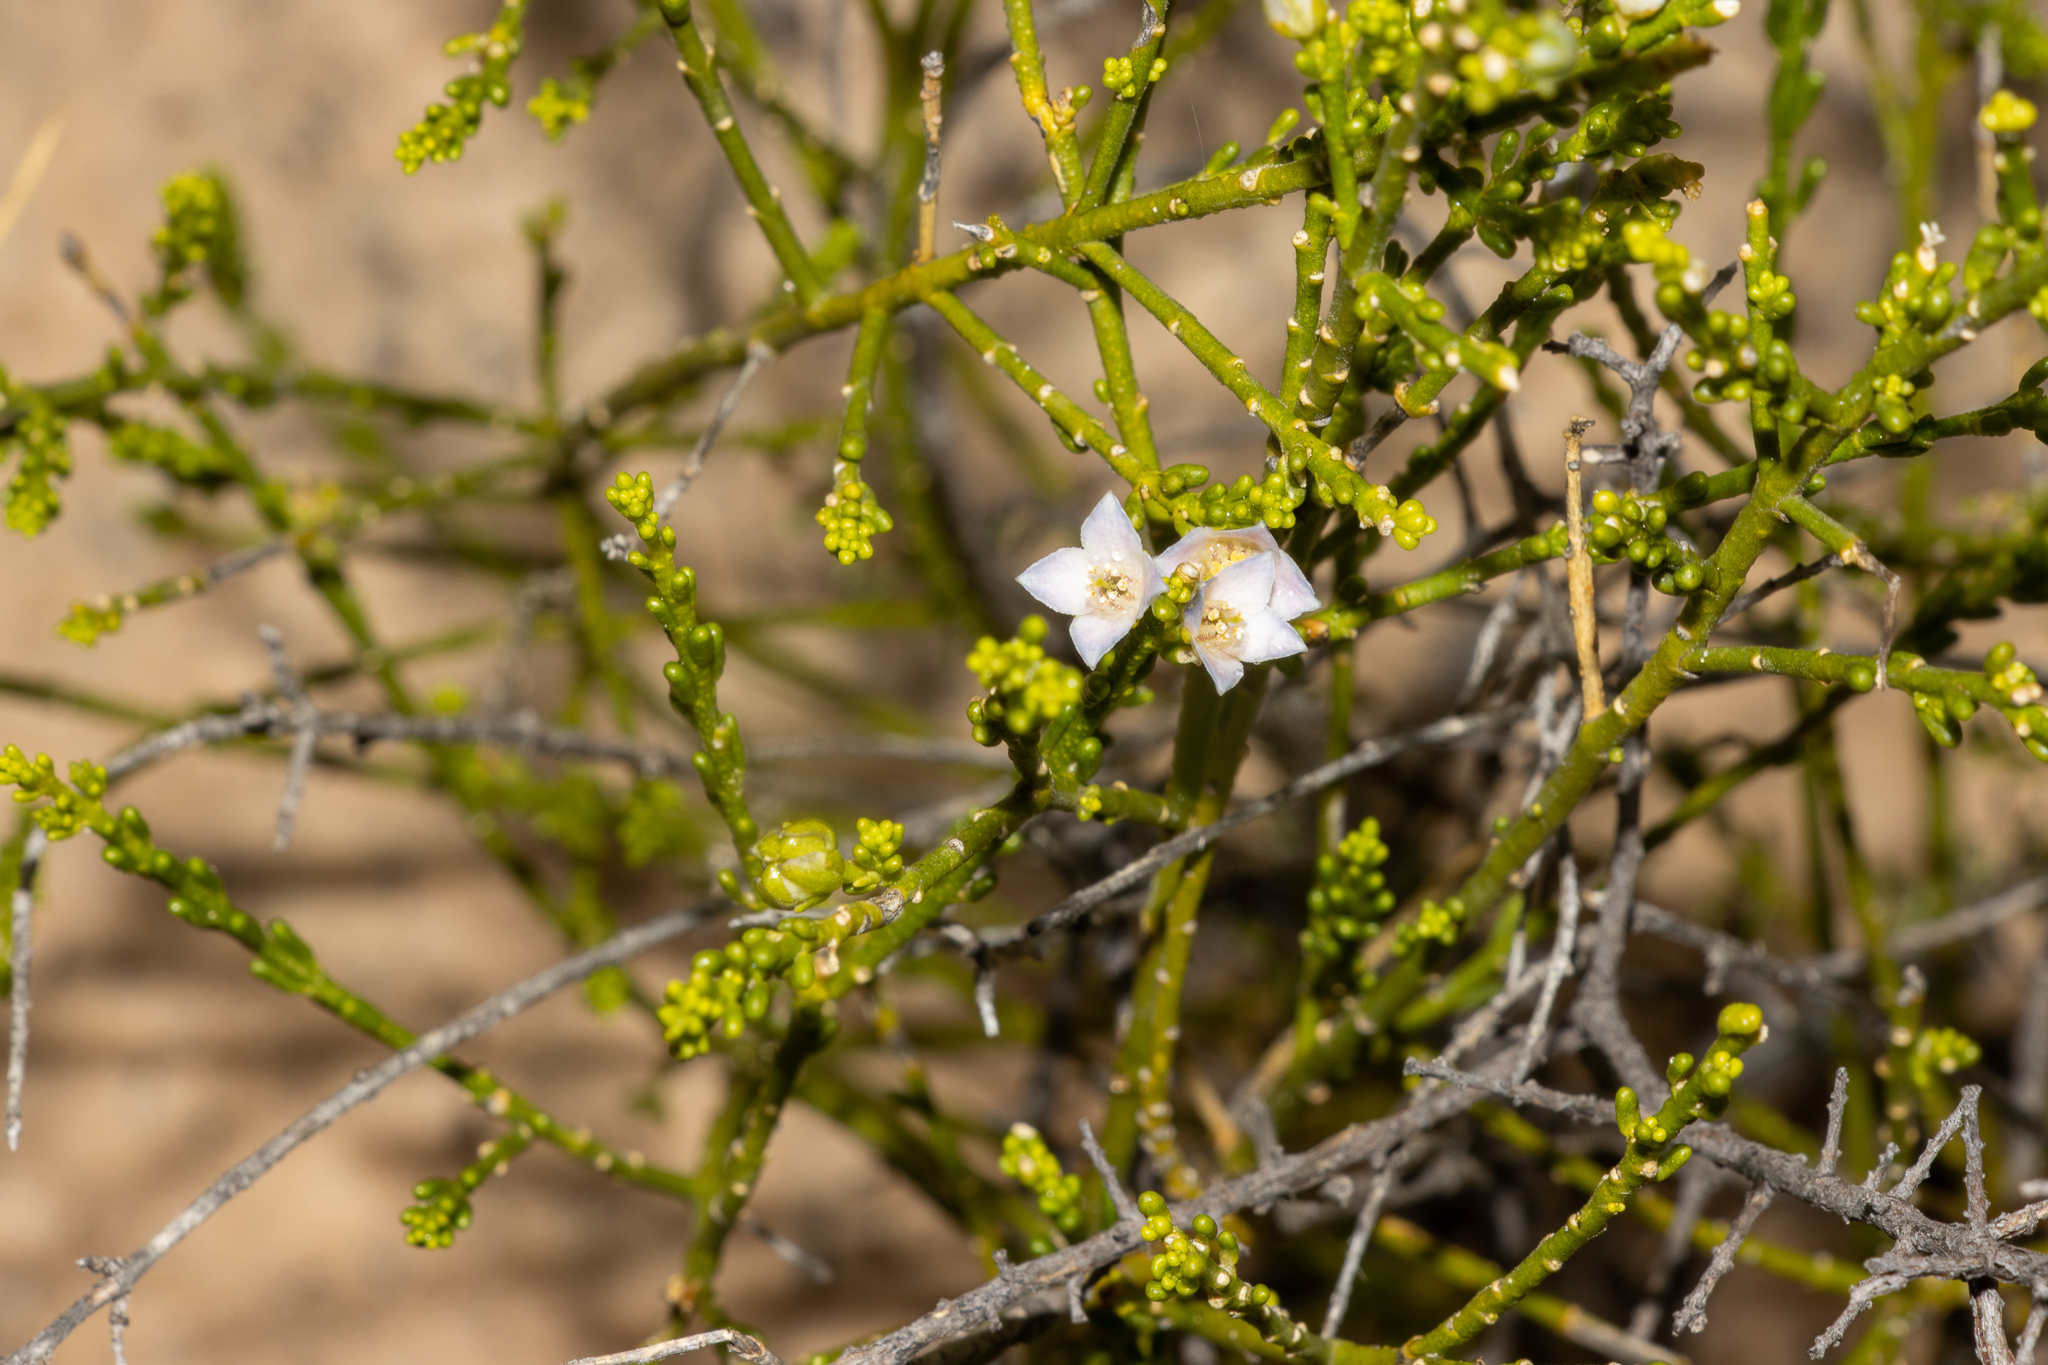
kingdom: Plantae
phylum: Tracheophyta
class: Magnoliopsida
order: Sapindales
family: Rutaceae
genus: Cyanothamnus
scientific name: Cyanothamnus coerulescens
